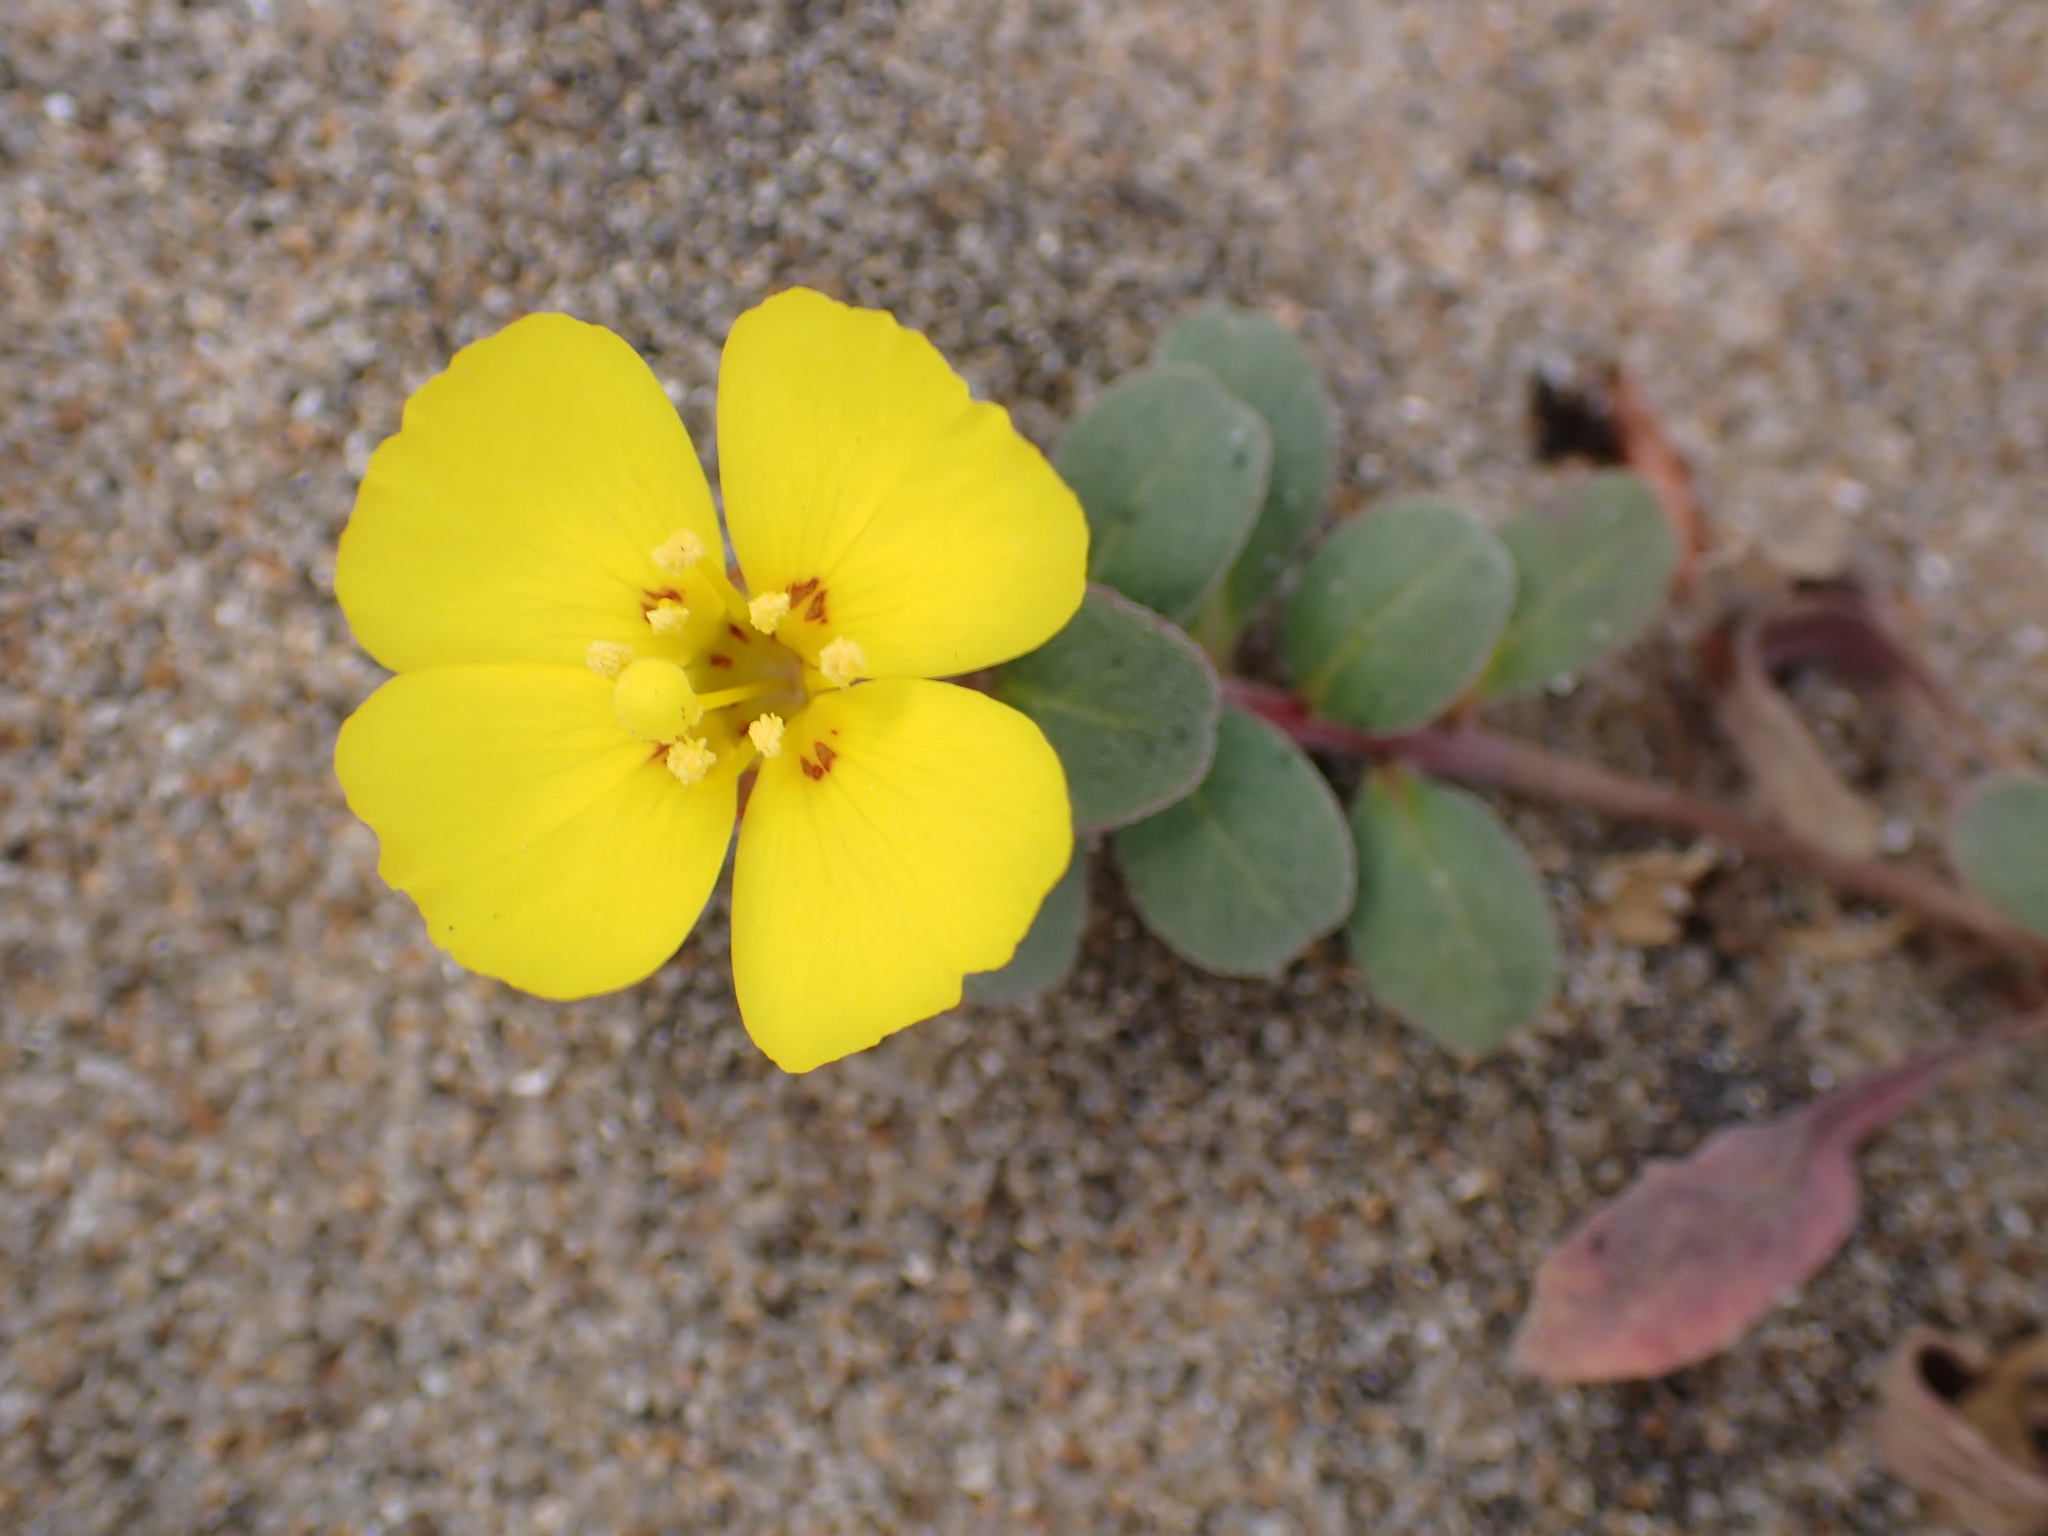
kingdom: Plantae
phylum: Tracheophyta
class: Magnoliopsida
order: Myrtales
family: Onagraceae
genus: Camissoniopsis
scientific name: Camissoniopsis cheiranthifolia
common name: Beach suncup
